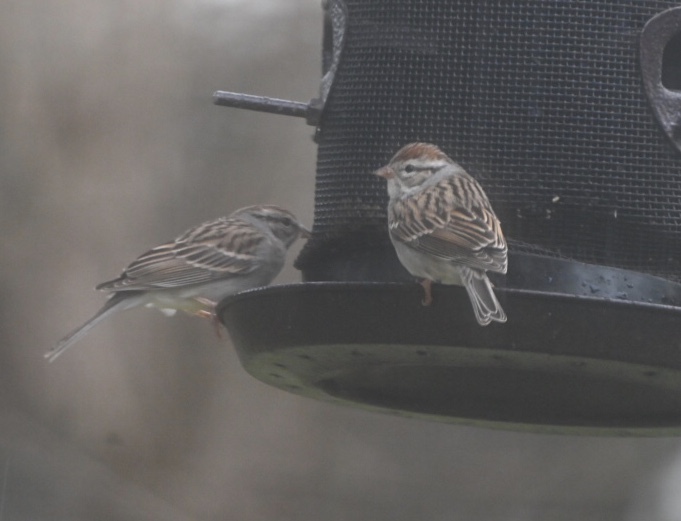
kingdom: Animalia
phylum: Chordata
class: Aves
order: Passeriformes
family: Passerellidae
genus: Spizella
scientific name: Spizella passerina
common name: Chipping sparrow
